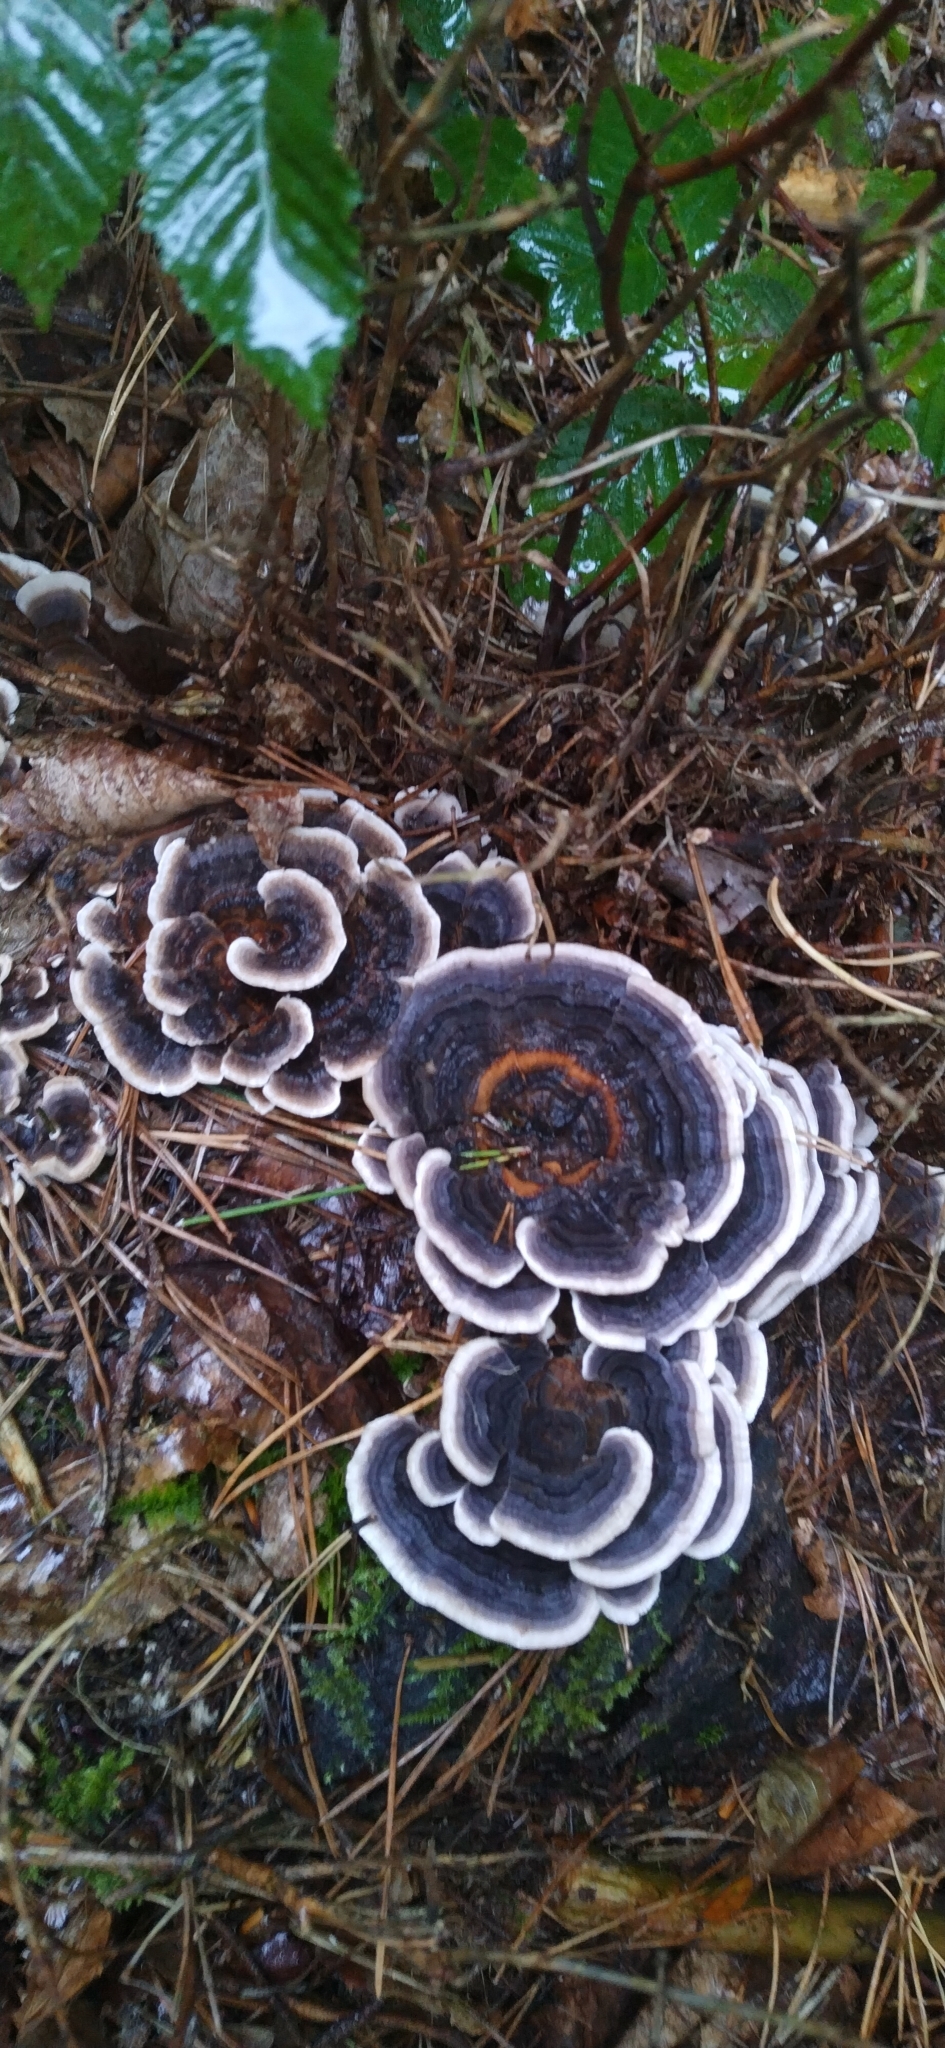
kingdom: Fungi
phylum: Basidiomycota
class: Agaricomycetes
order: Polyporales
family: Polyporaceae
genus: Trametes
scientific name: Trametes versicolor
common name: Turkeytail
